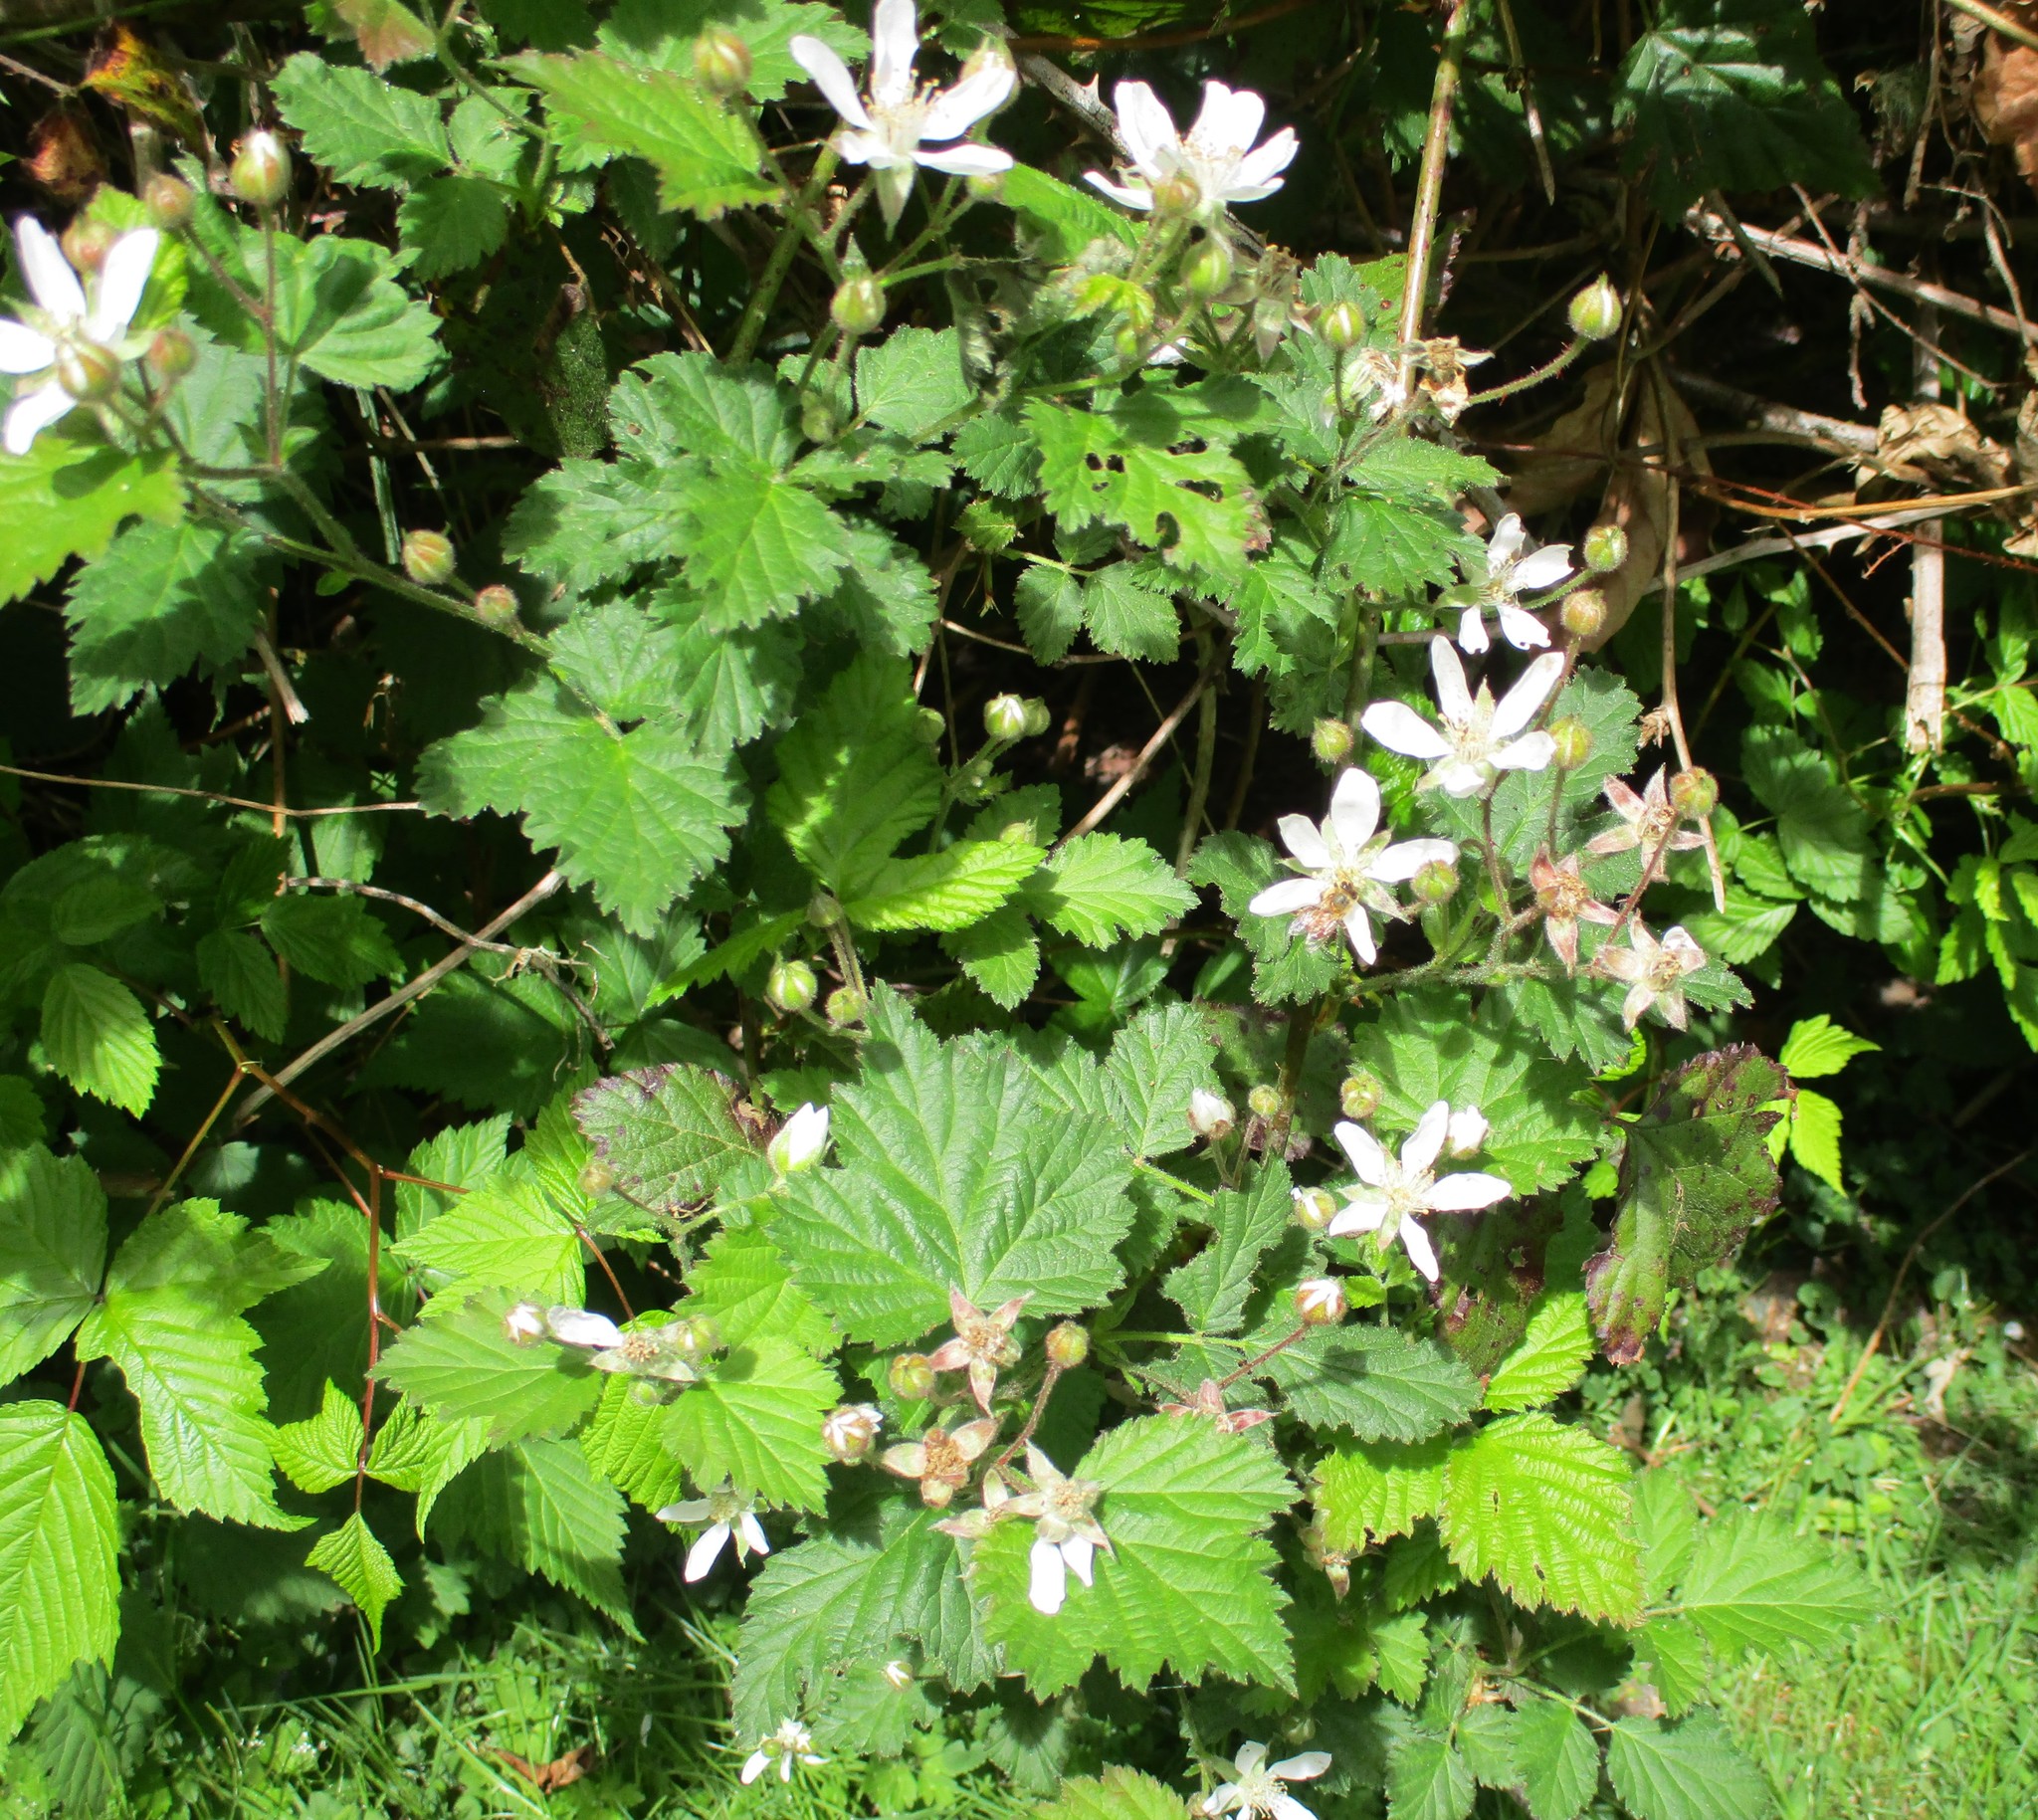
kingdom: Plantae
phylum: Tracheophyta
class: Magnoliopsida
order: Rosales
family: Rosaceae
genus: Rubus
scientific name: Rubus ursinus
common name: Pacific blackberry
